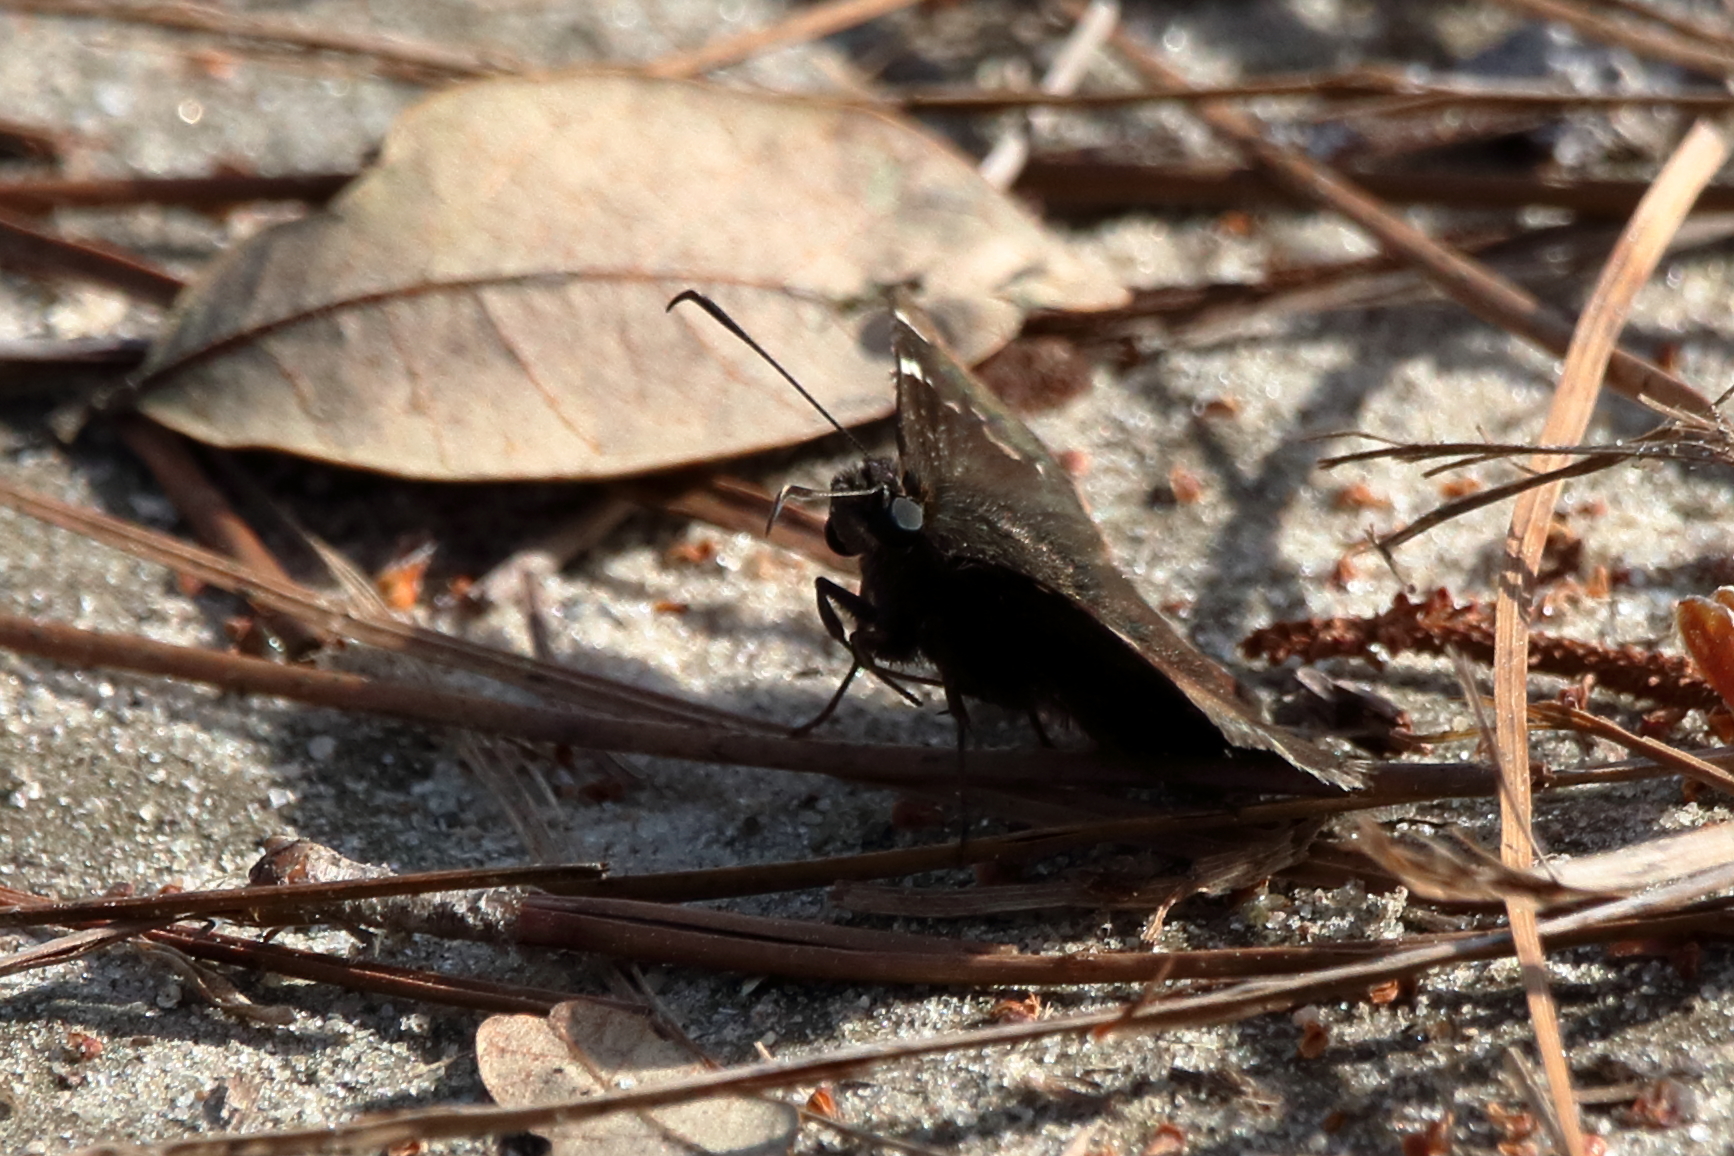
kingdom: Animalia
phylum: Arthropoda
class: Insecta
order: Lepidoptera
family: Hesperiidae
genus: Thorybes
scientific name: Thorybes daunus
